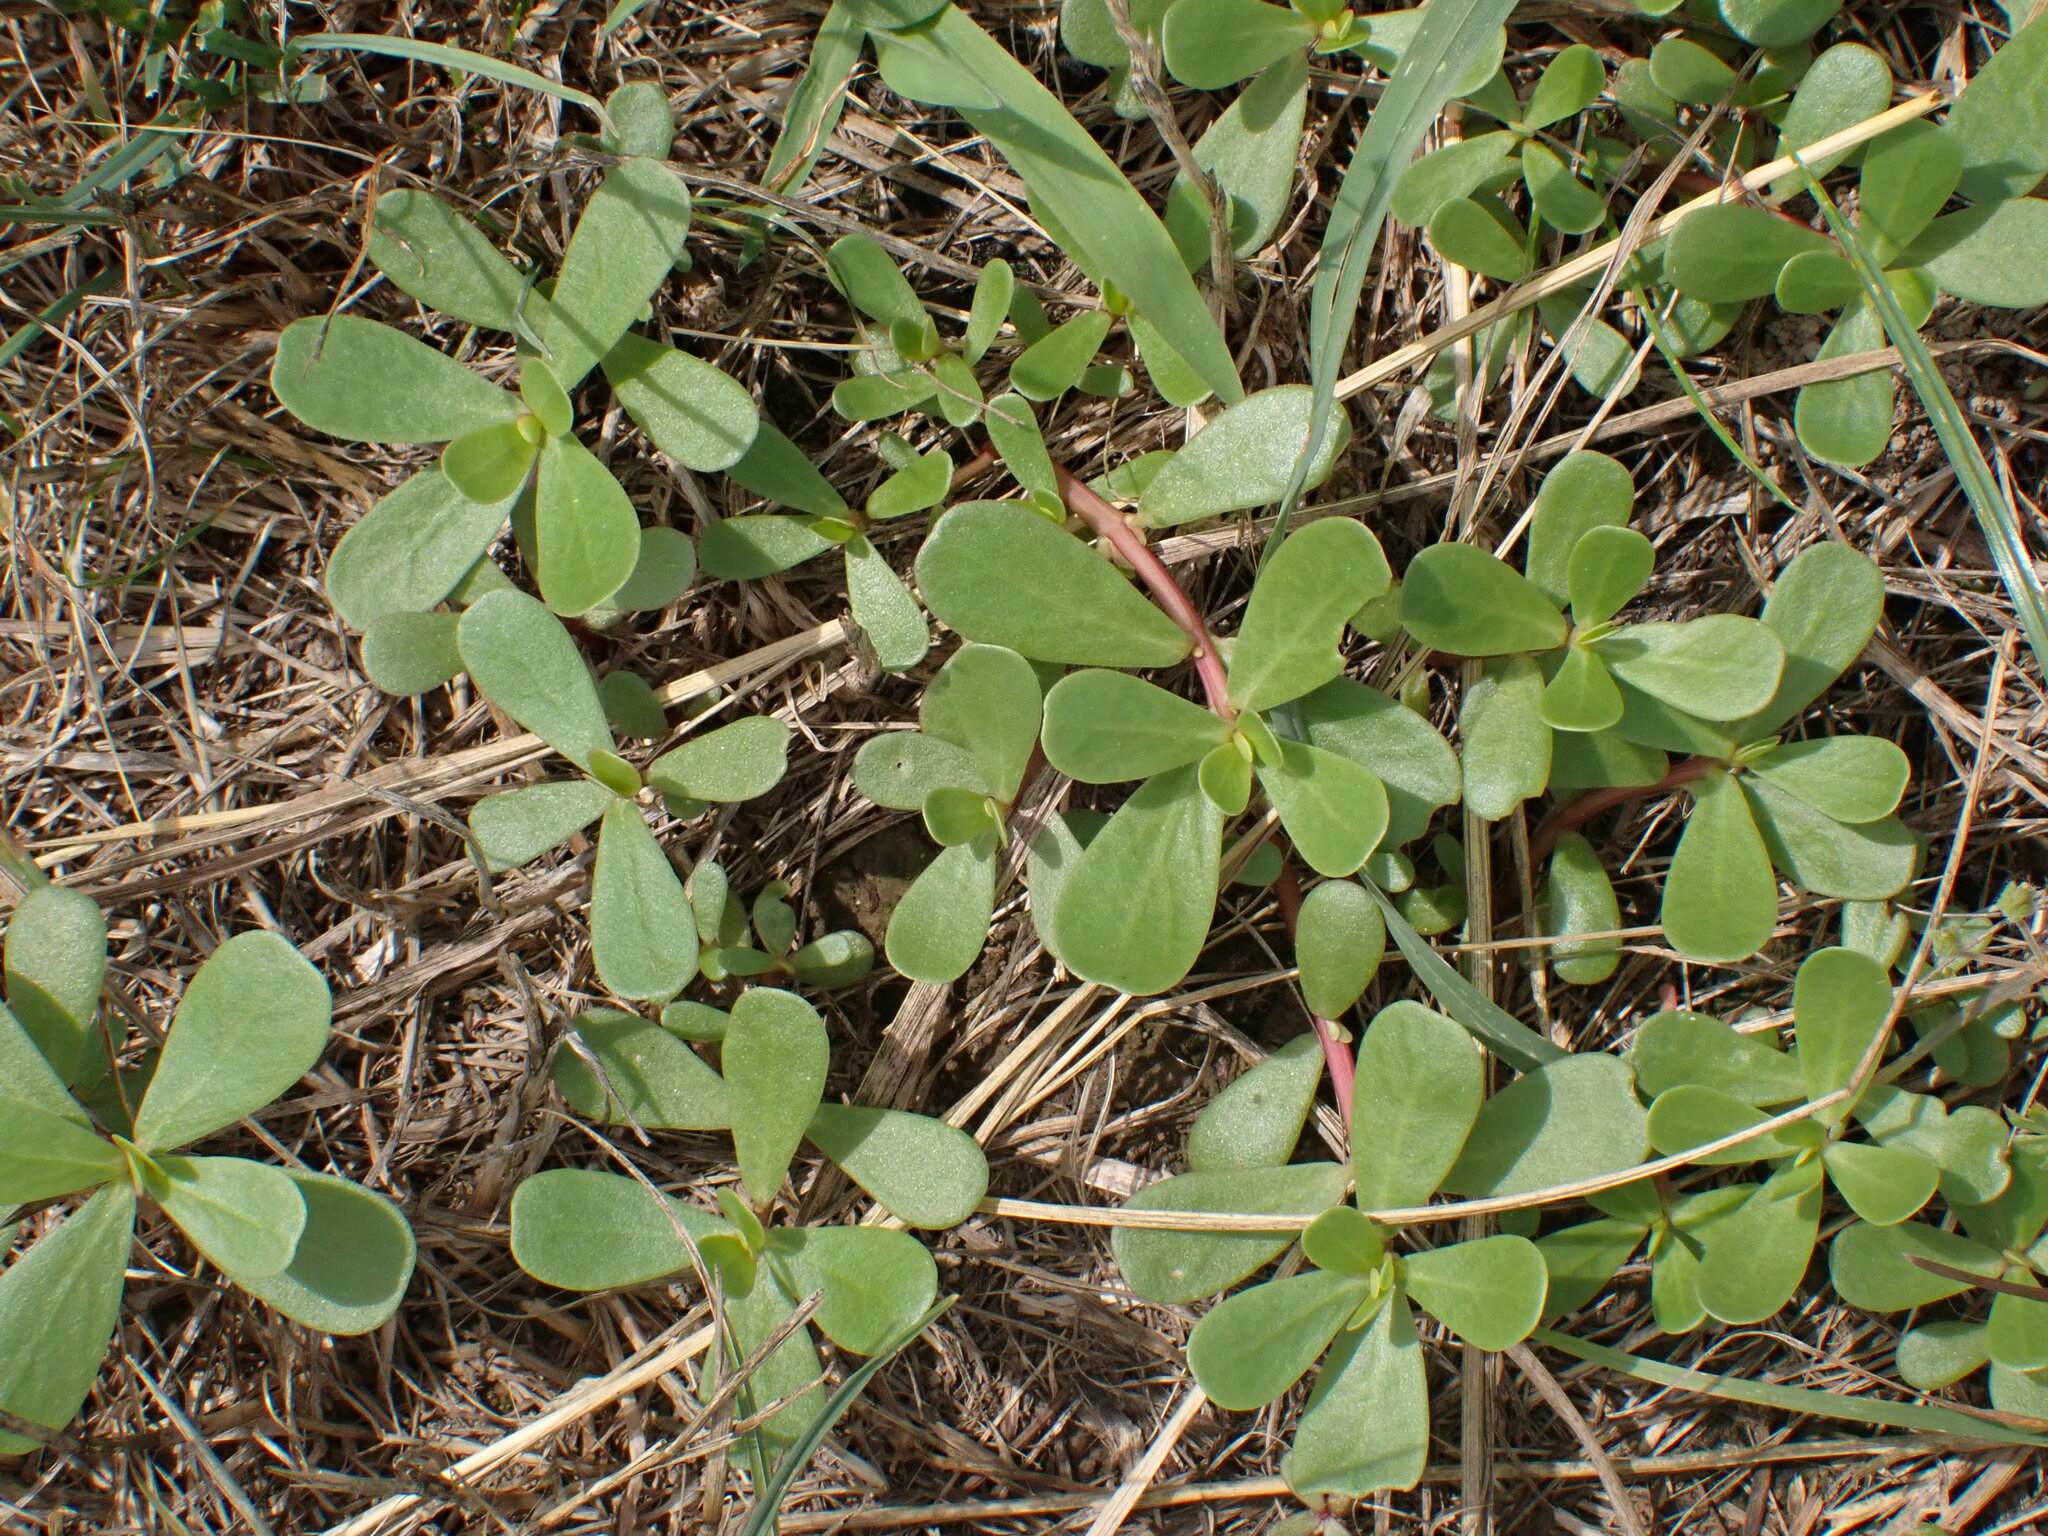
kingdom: Plantae
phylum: Tracheophyta
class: Magnoliopsida
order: Caryophyllales
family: Portulacaceae
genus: Portulaca
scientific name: Portulaca oleracea
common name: Common purslane
